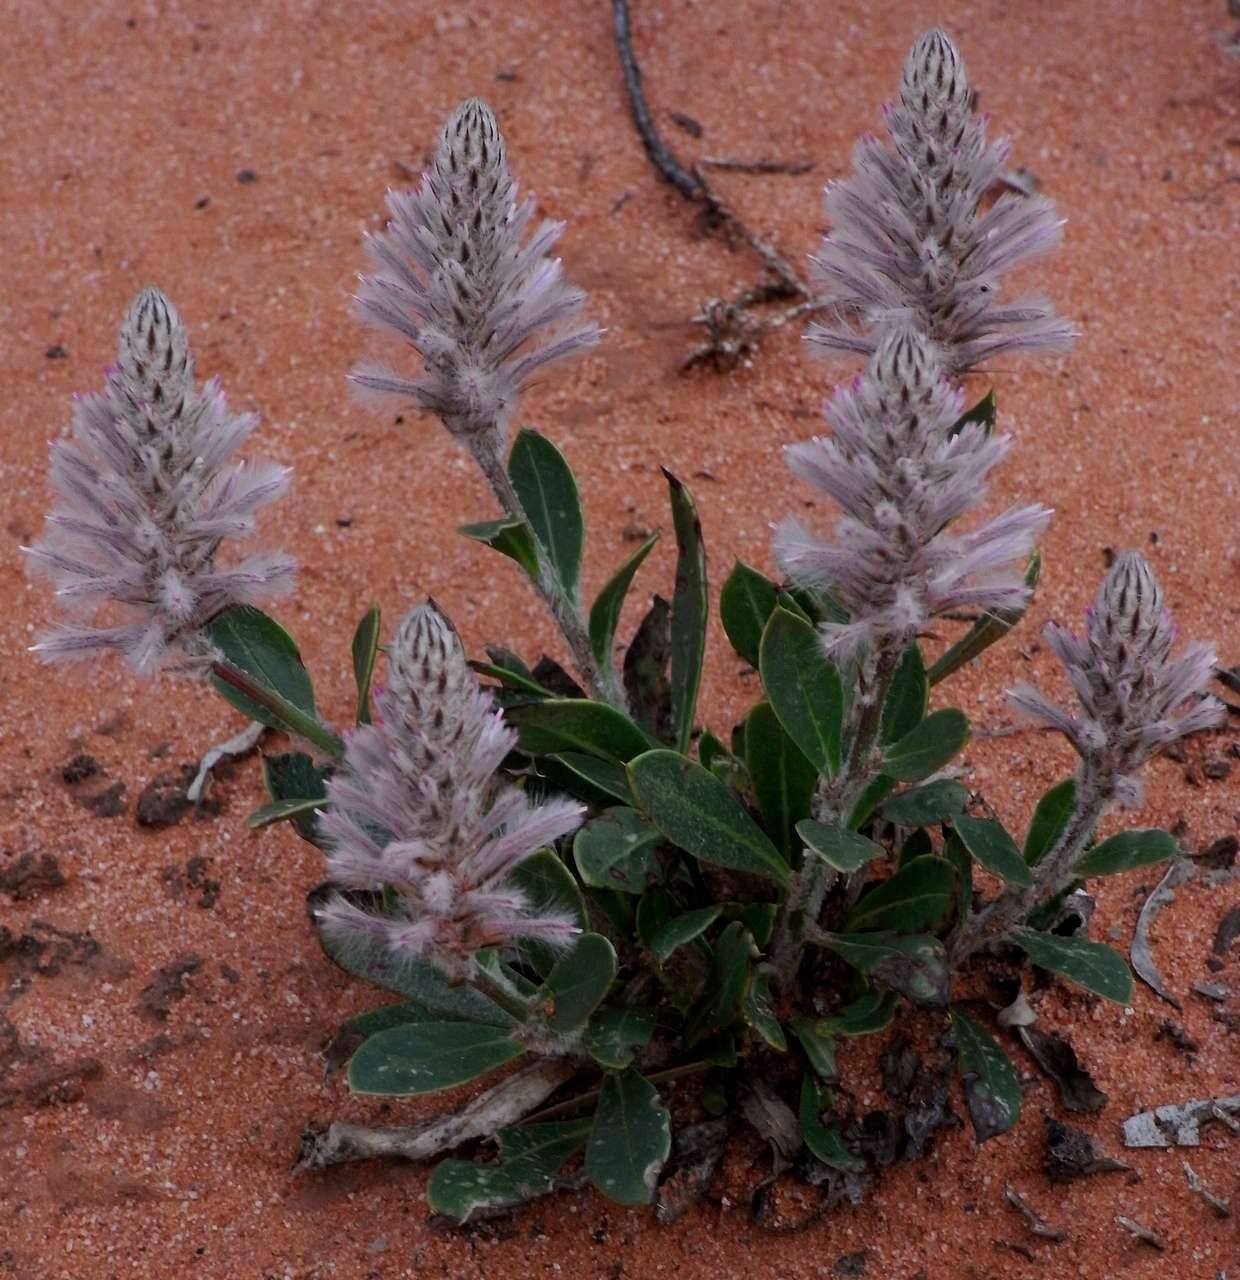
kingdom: Plantae
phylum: Tracheophyta
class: Magnoliopsida
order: Caryophyllales
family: Amaranthaceae
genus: Ptilotus
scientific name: Ptilotus exaltatus
